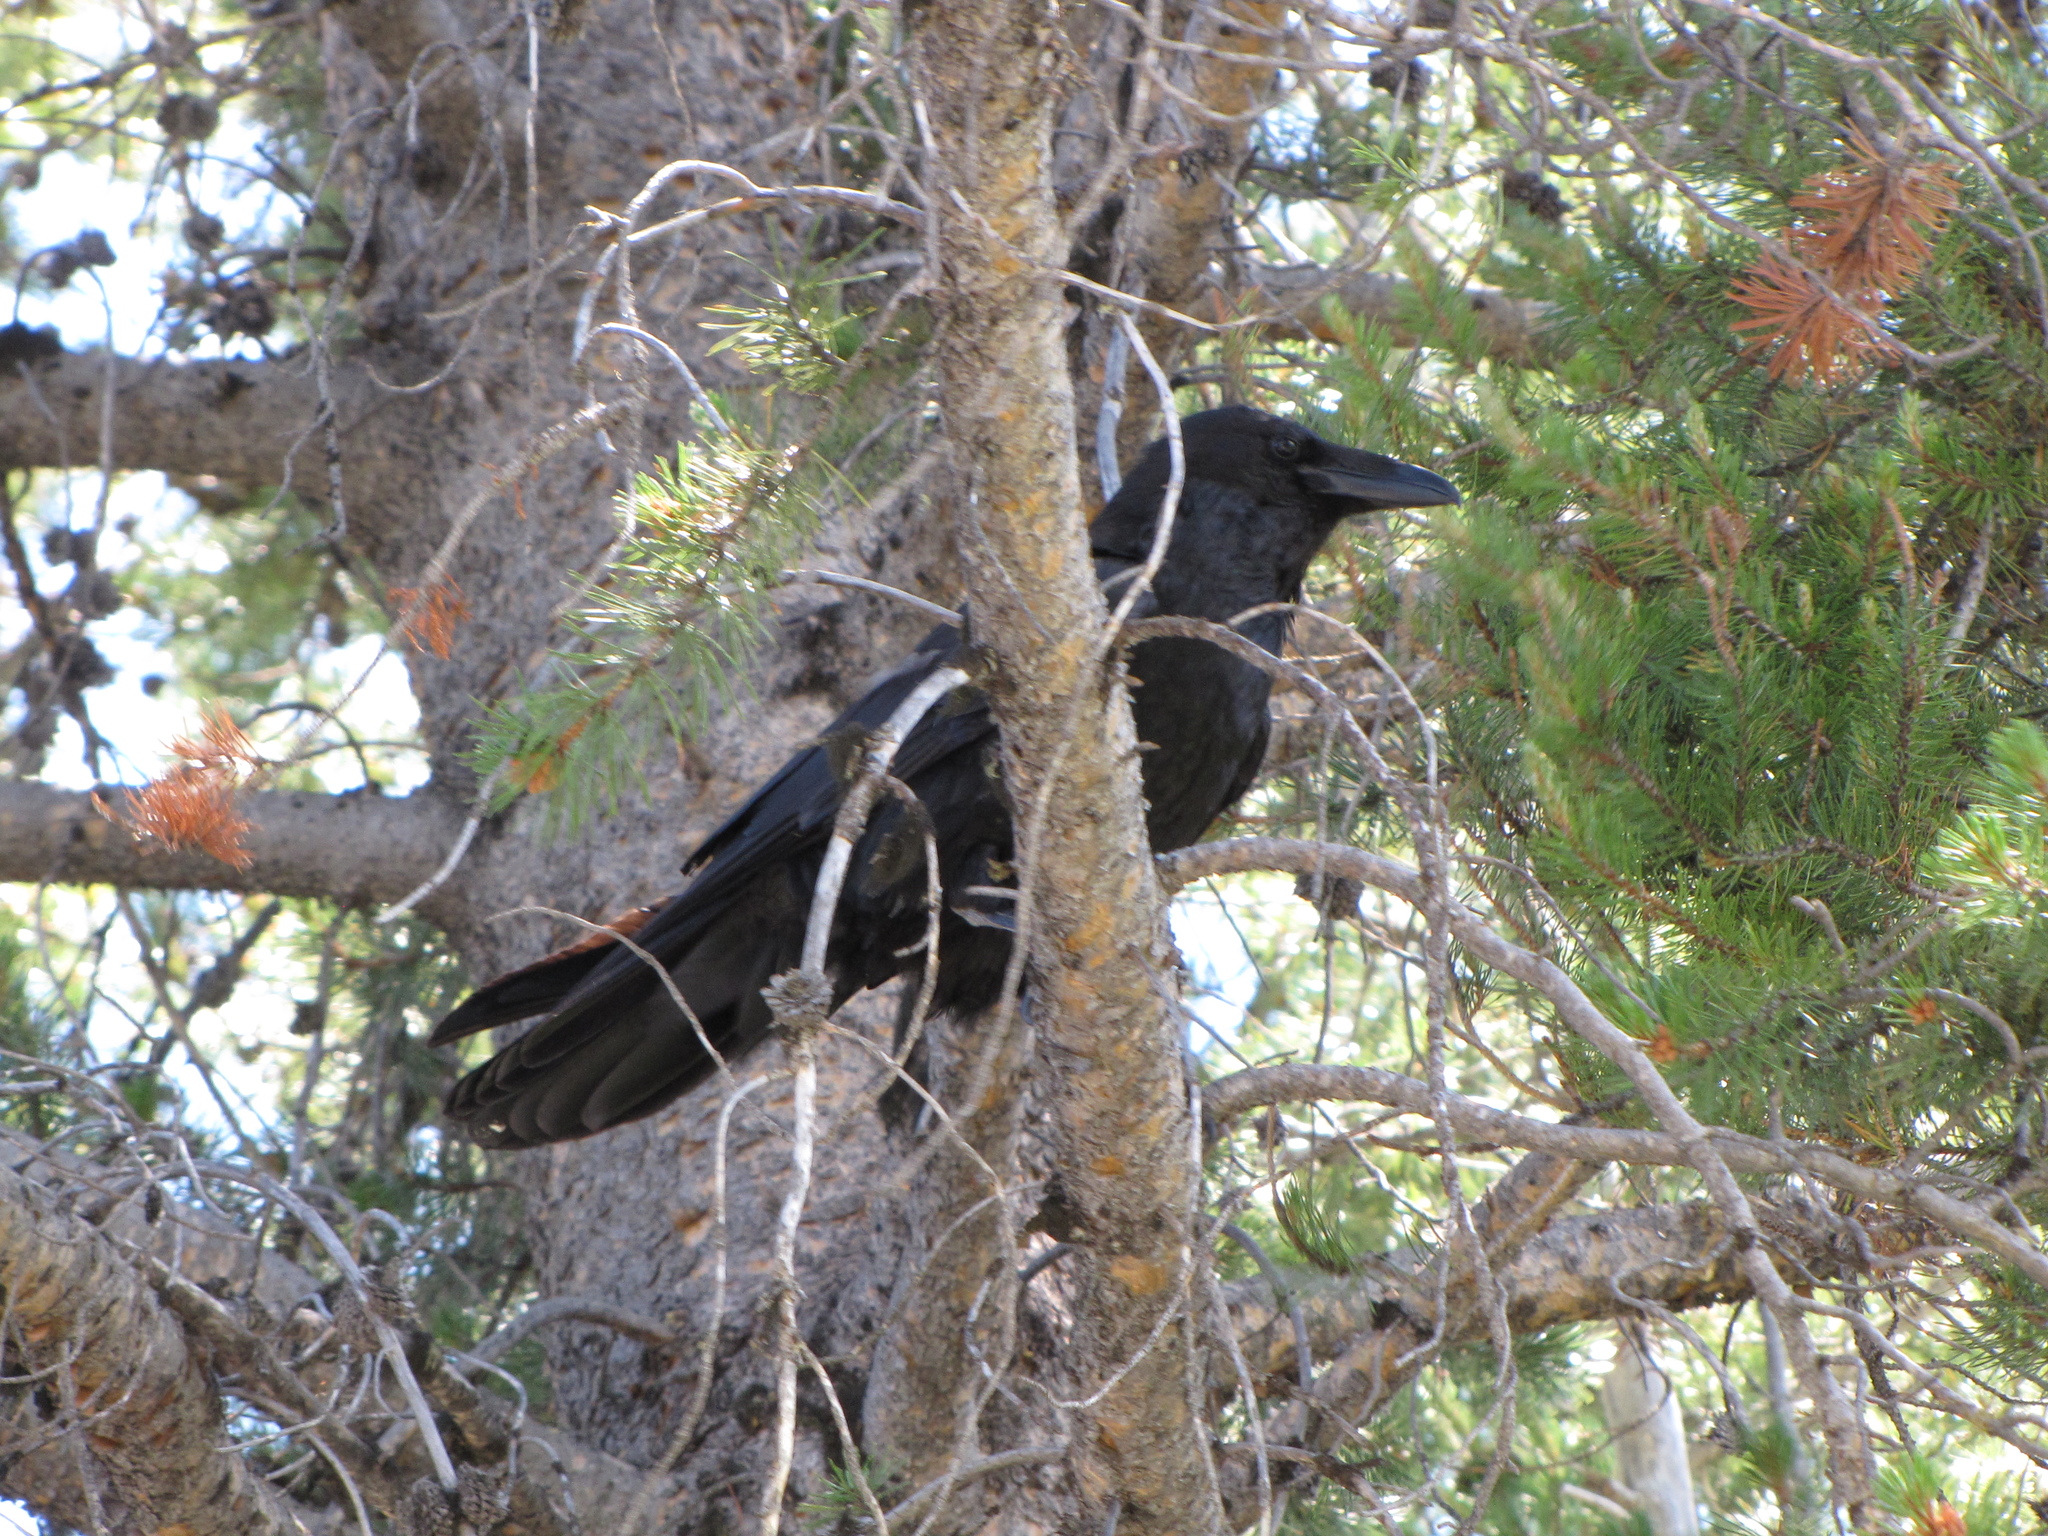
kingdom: Animalia
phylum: Chordata
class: Aves
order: Passeriformes
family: Corvidae
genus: Corvus
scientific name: Corvus corax
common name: Common raven
